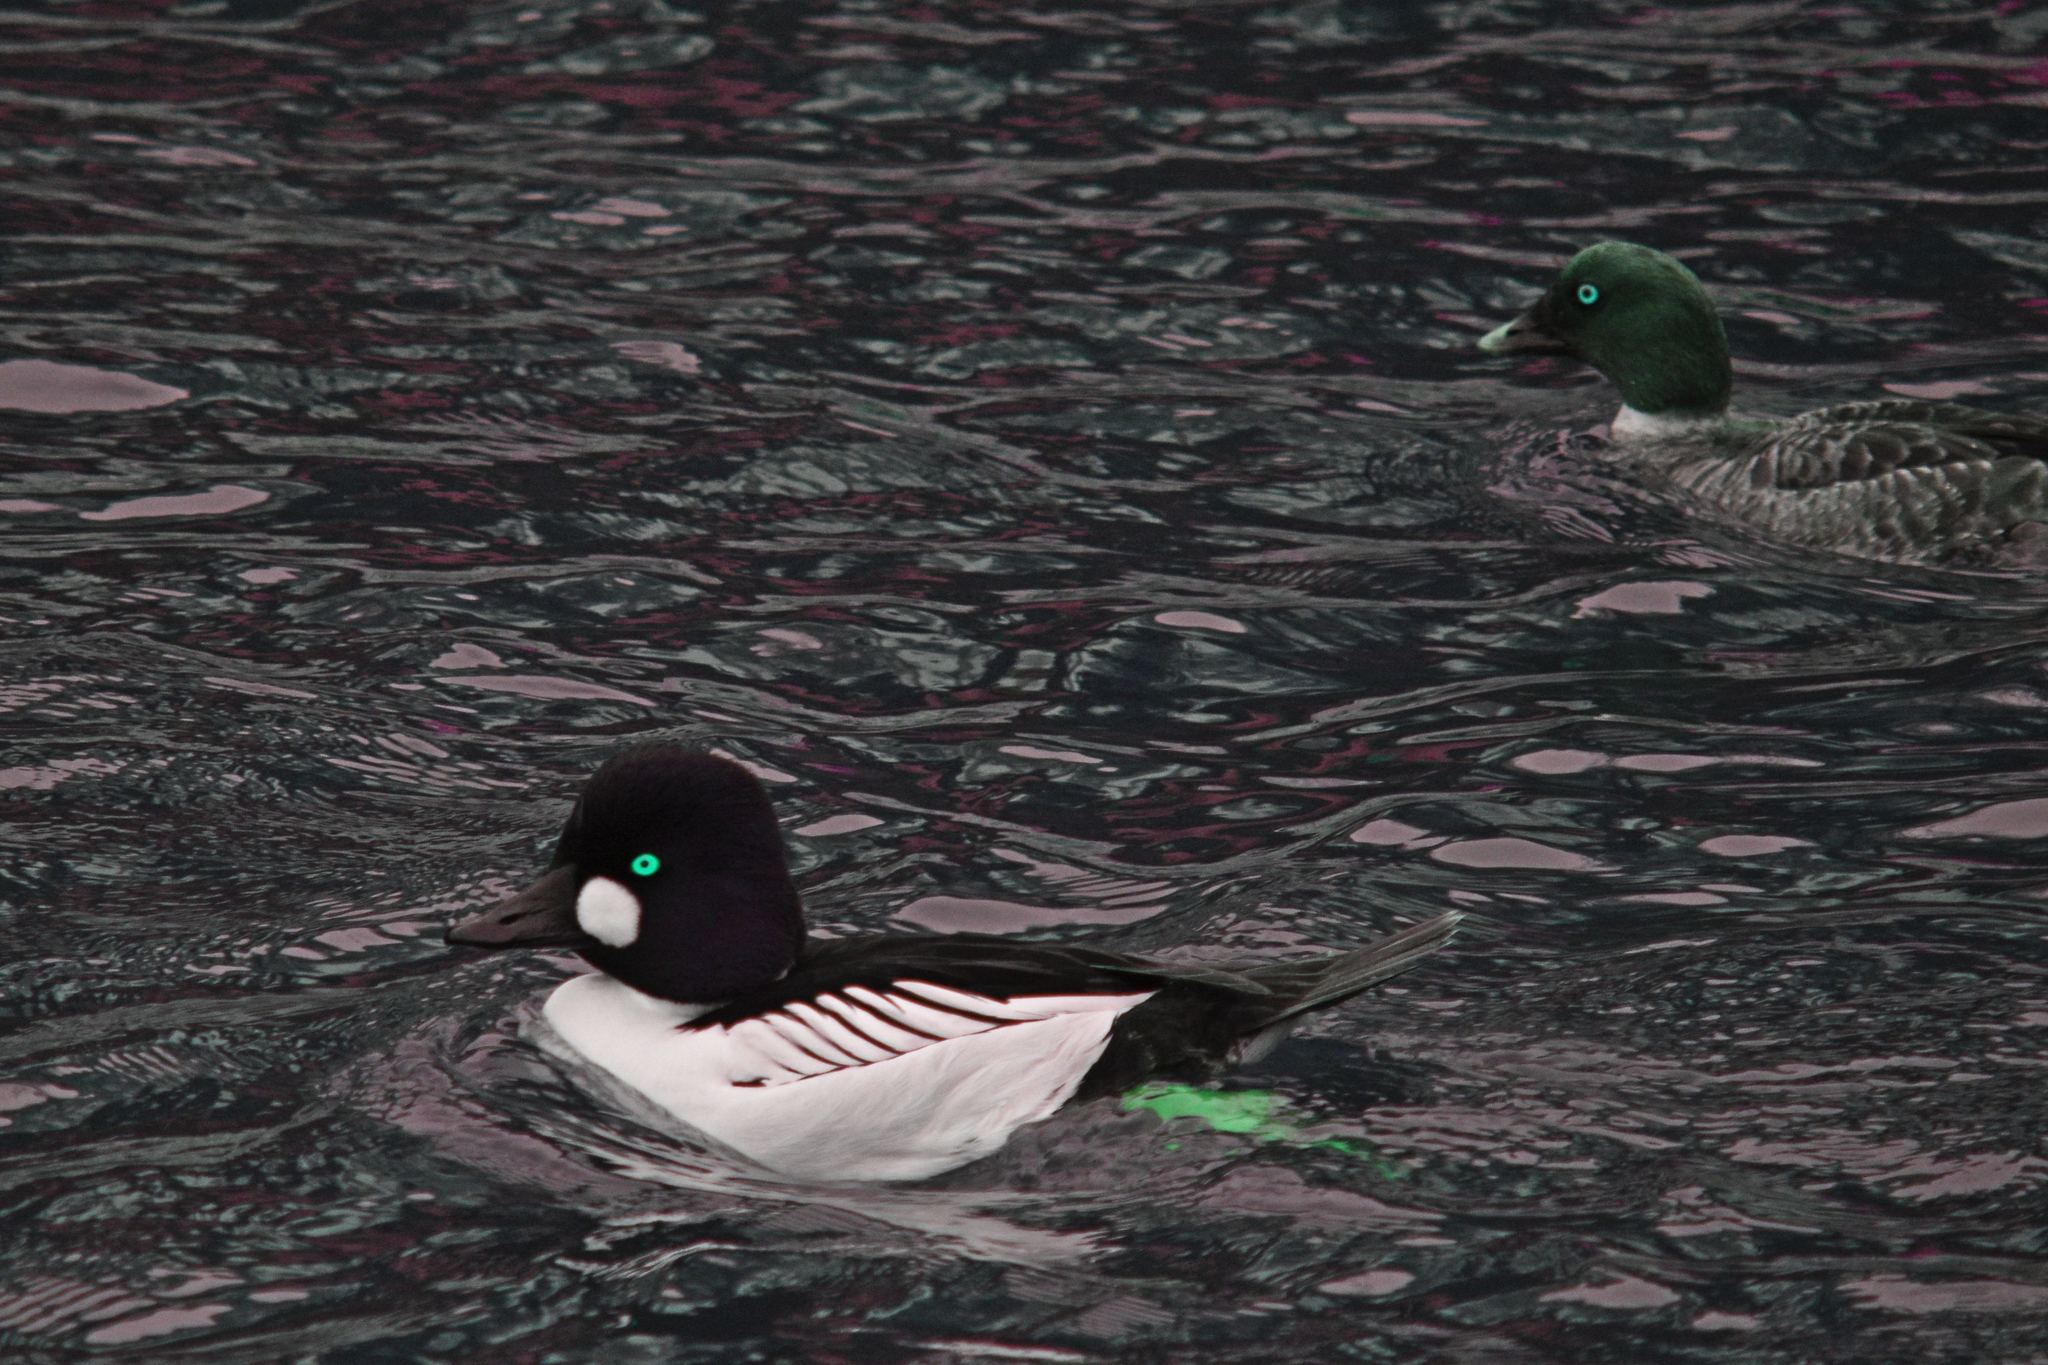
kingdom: Animalia
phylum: Chordata
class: Aves
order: Anseriformes
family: Anatidae
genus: Bucephala
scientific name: Bucephala clangula
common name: Common goldeneye
